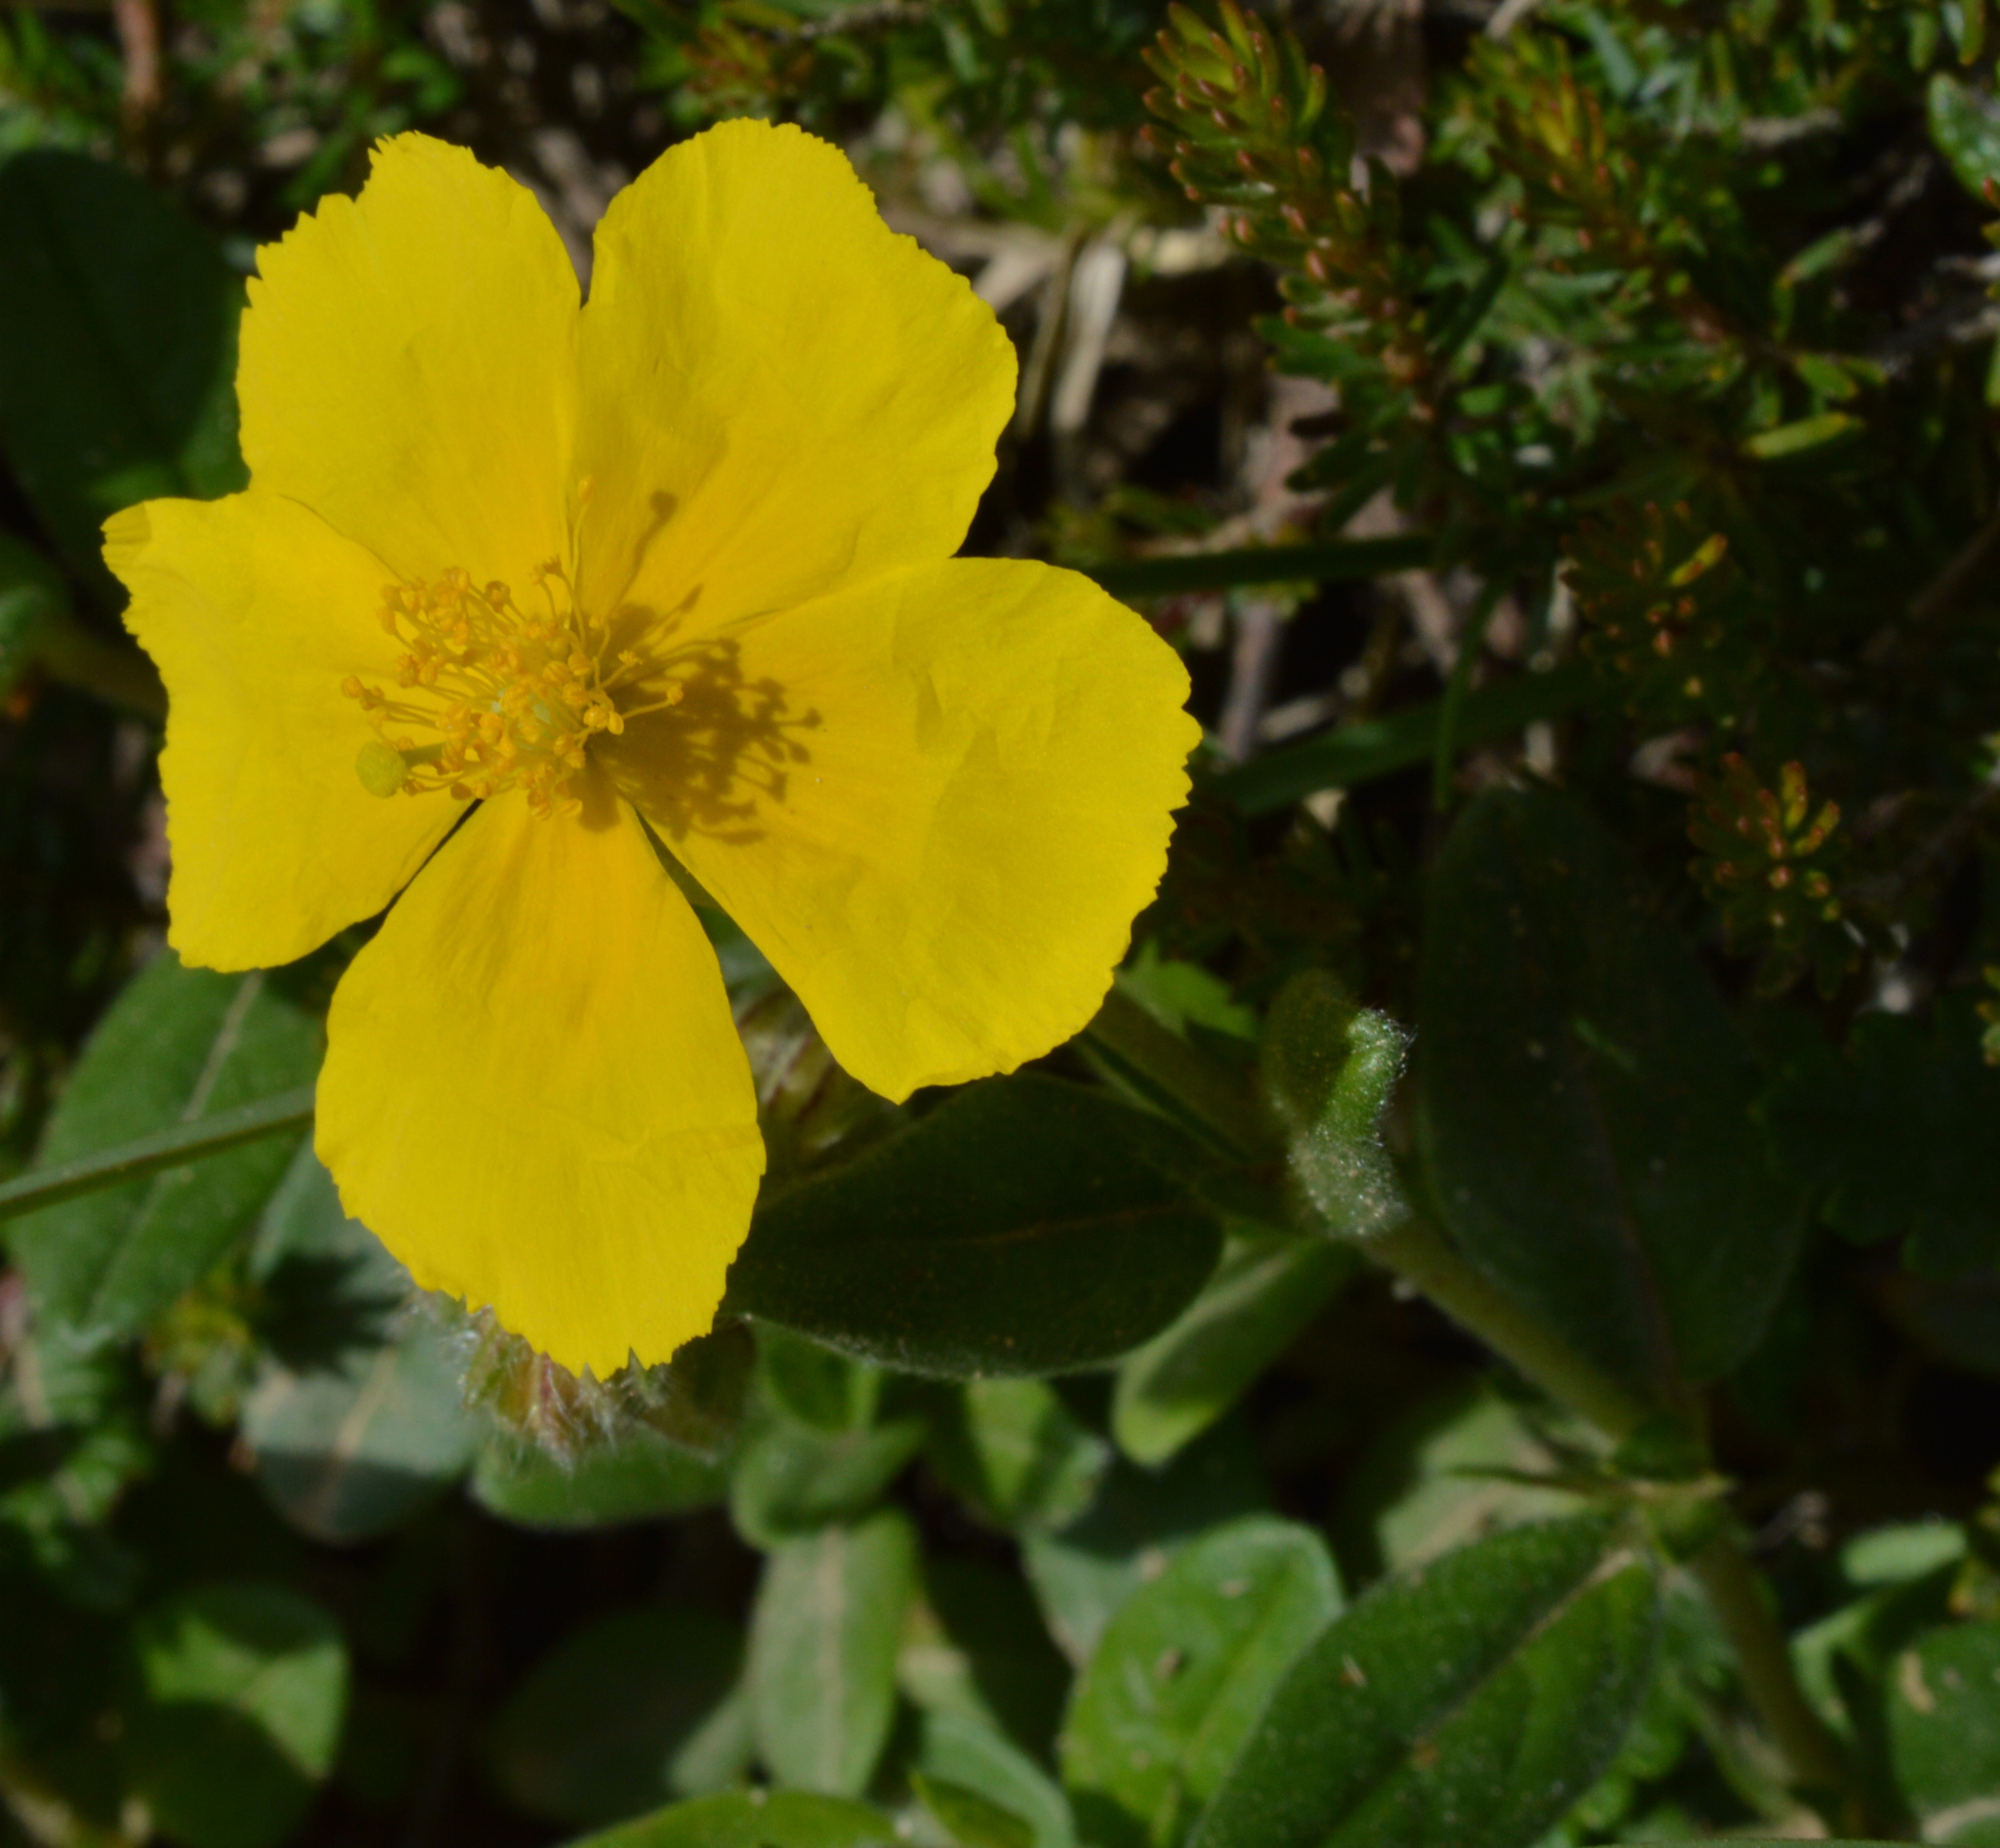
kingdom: Plantae
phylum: Tracheophyta
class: Magnoliopsida
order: Malvales
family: Cistaceae
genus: Helianthemum
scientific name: Helianthemum nummularium
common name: Common rock-rose
